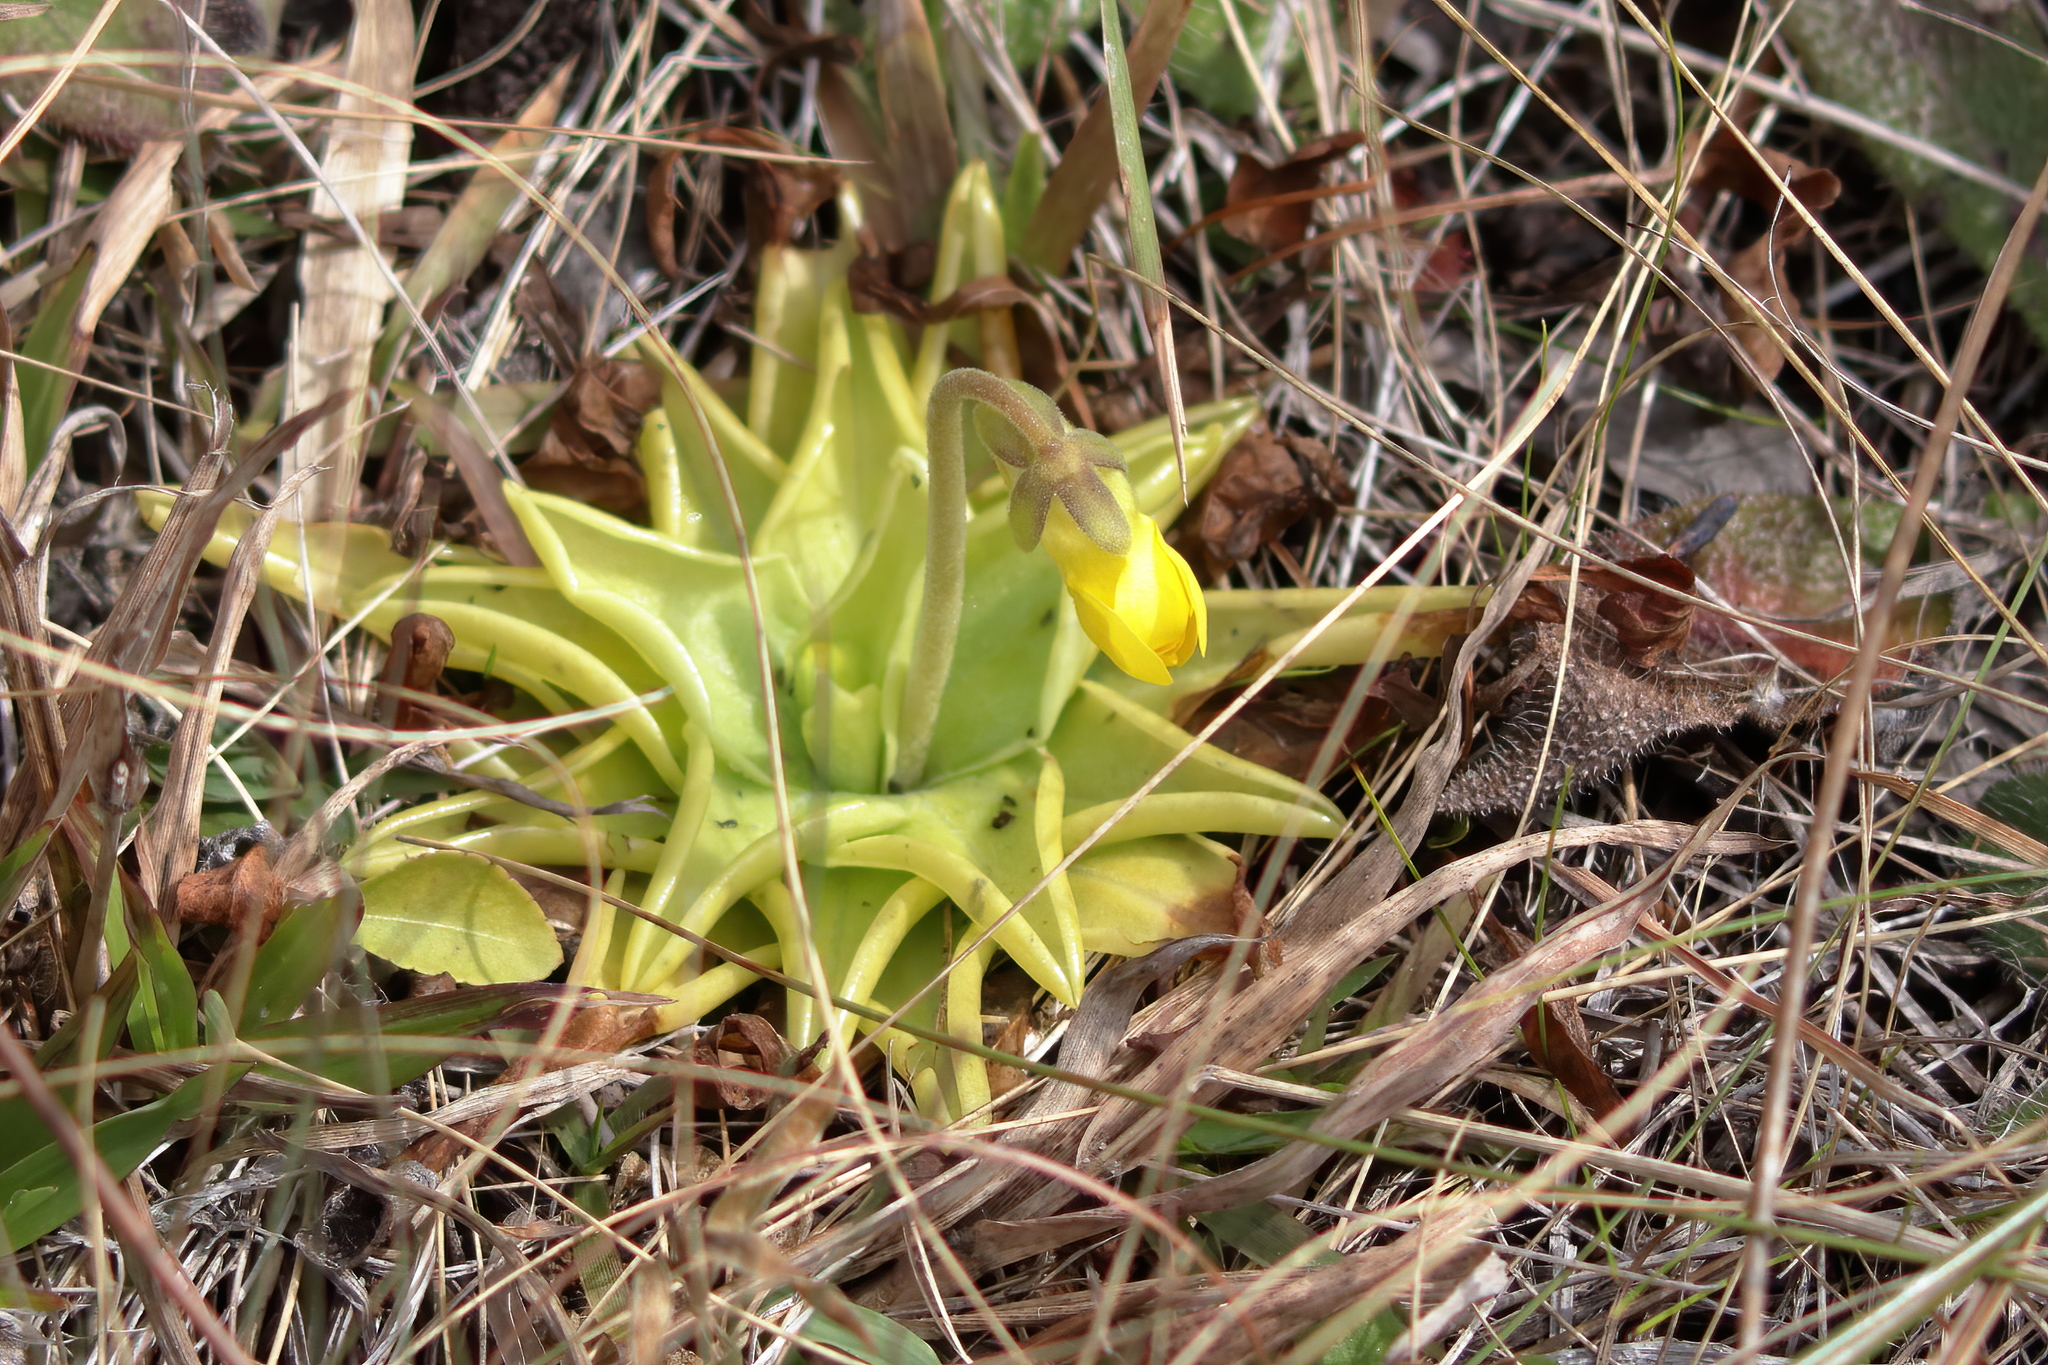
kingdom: Plantae
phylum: Tracheophyta
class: Magnoliopsida
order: Lamiales
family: Lentibulariaceae
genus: Pinguicula
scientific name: Pinguicula lutea
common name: Yellow butterwort
